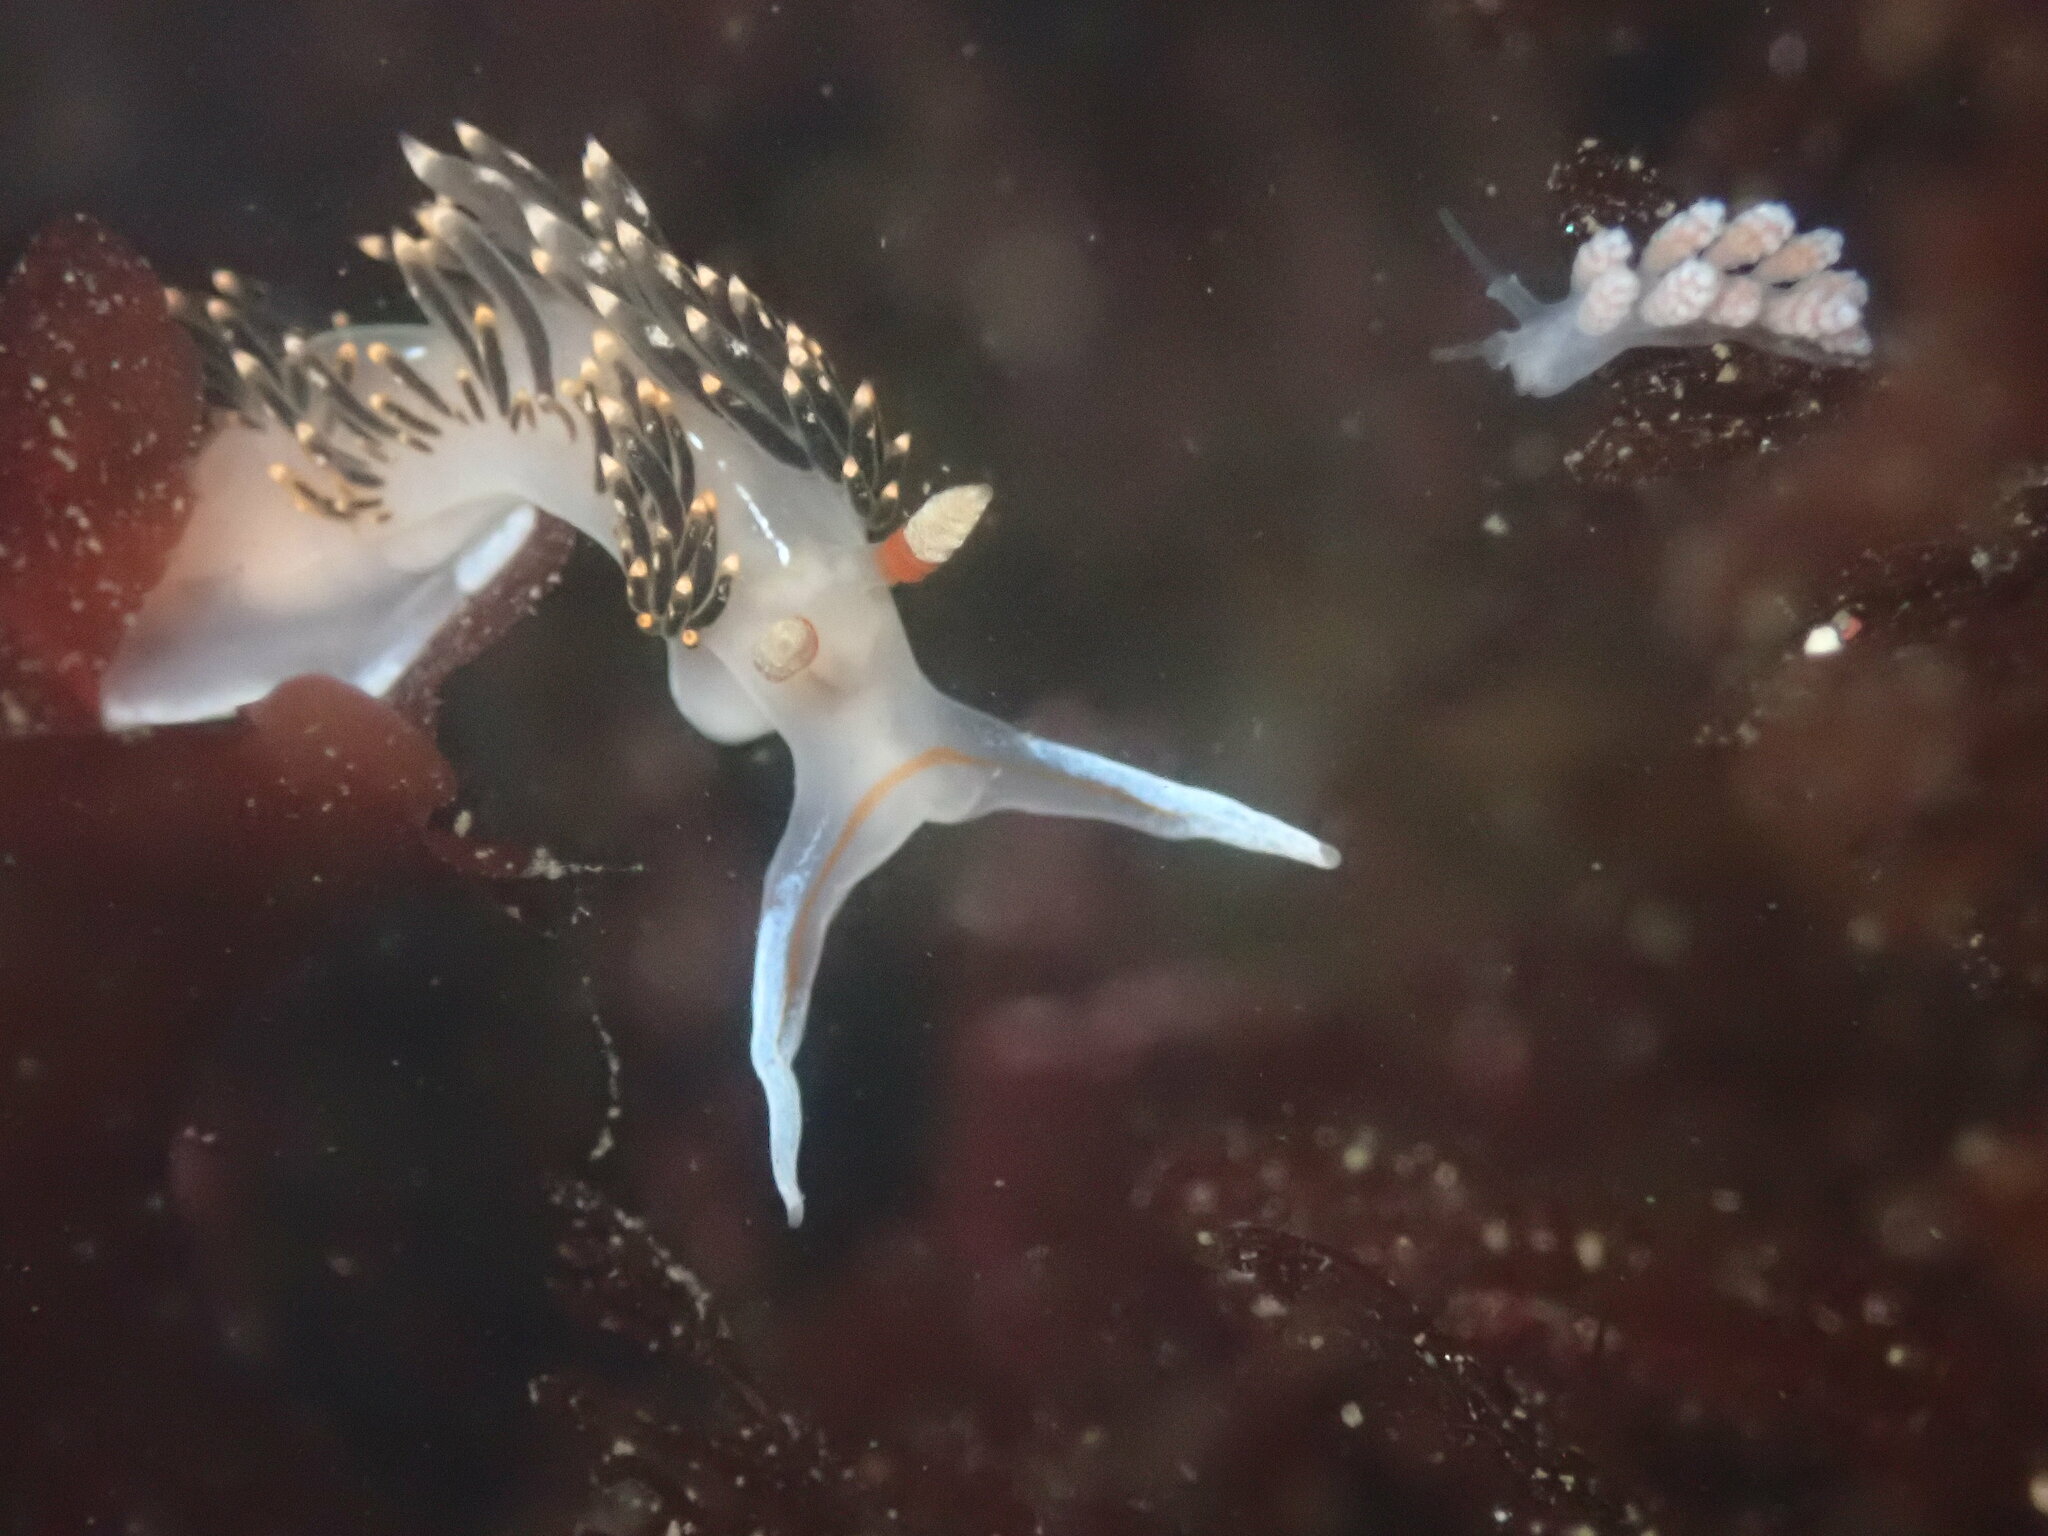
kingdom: Animalia
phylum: Mollusca
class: Gastropoda
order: Nudibranchia
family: Facelinidae
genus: Phidiana
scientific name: Phidiana hiltoni
